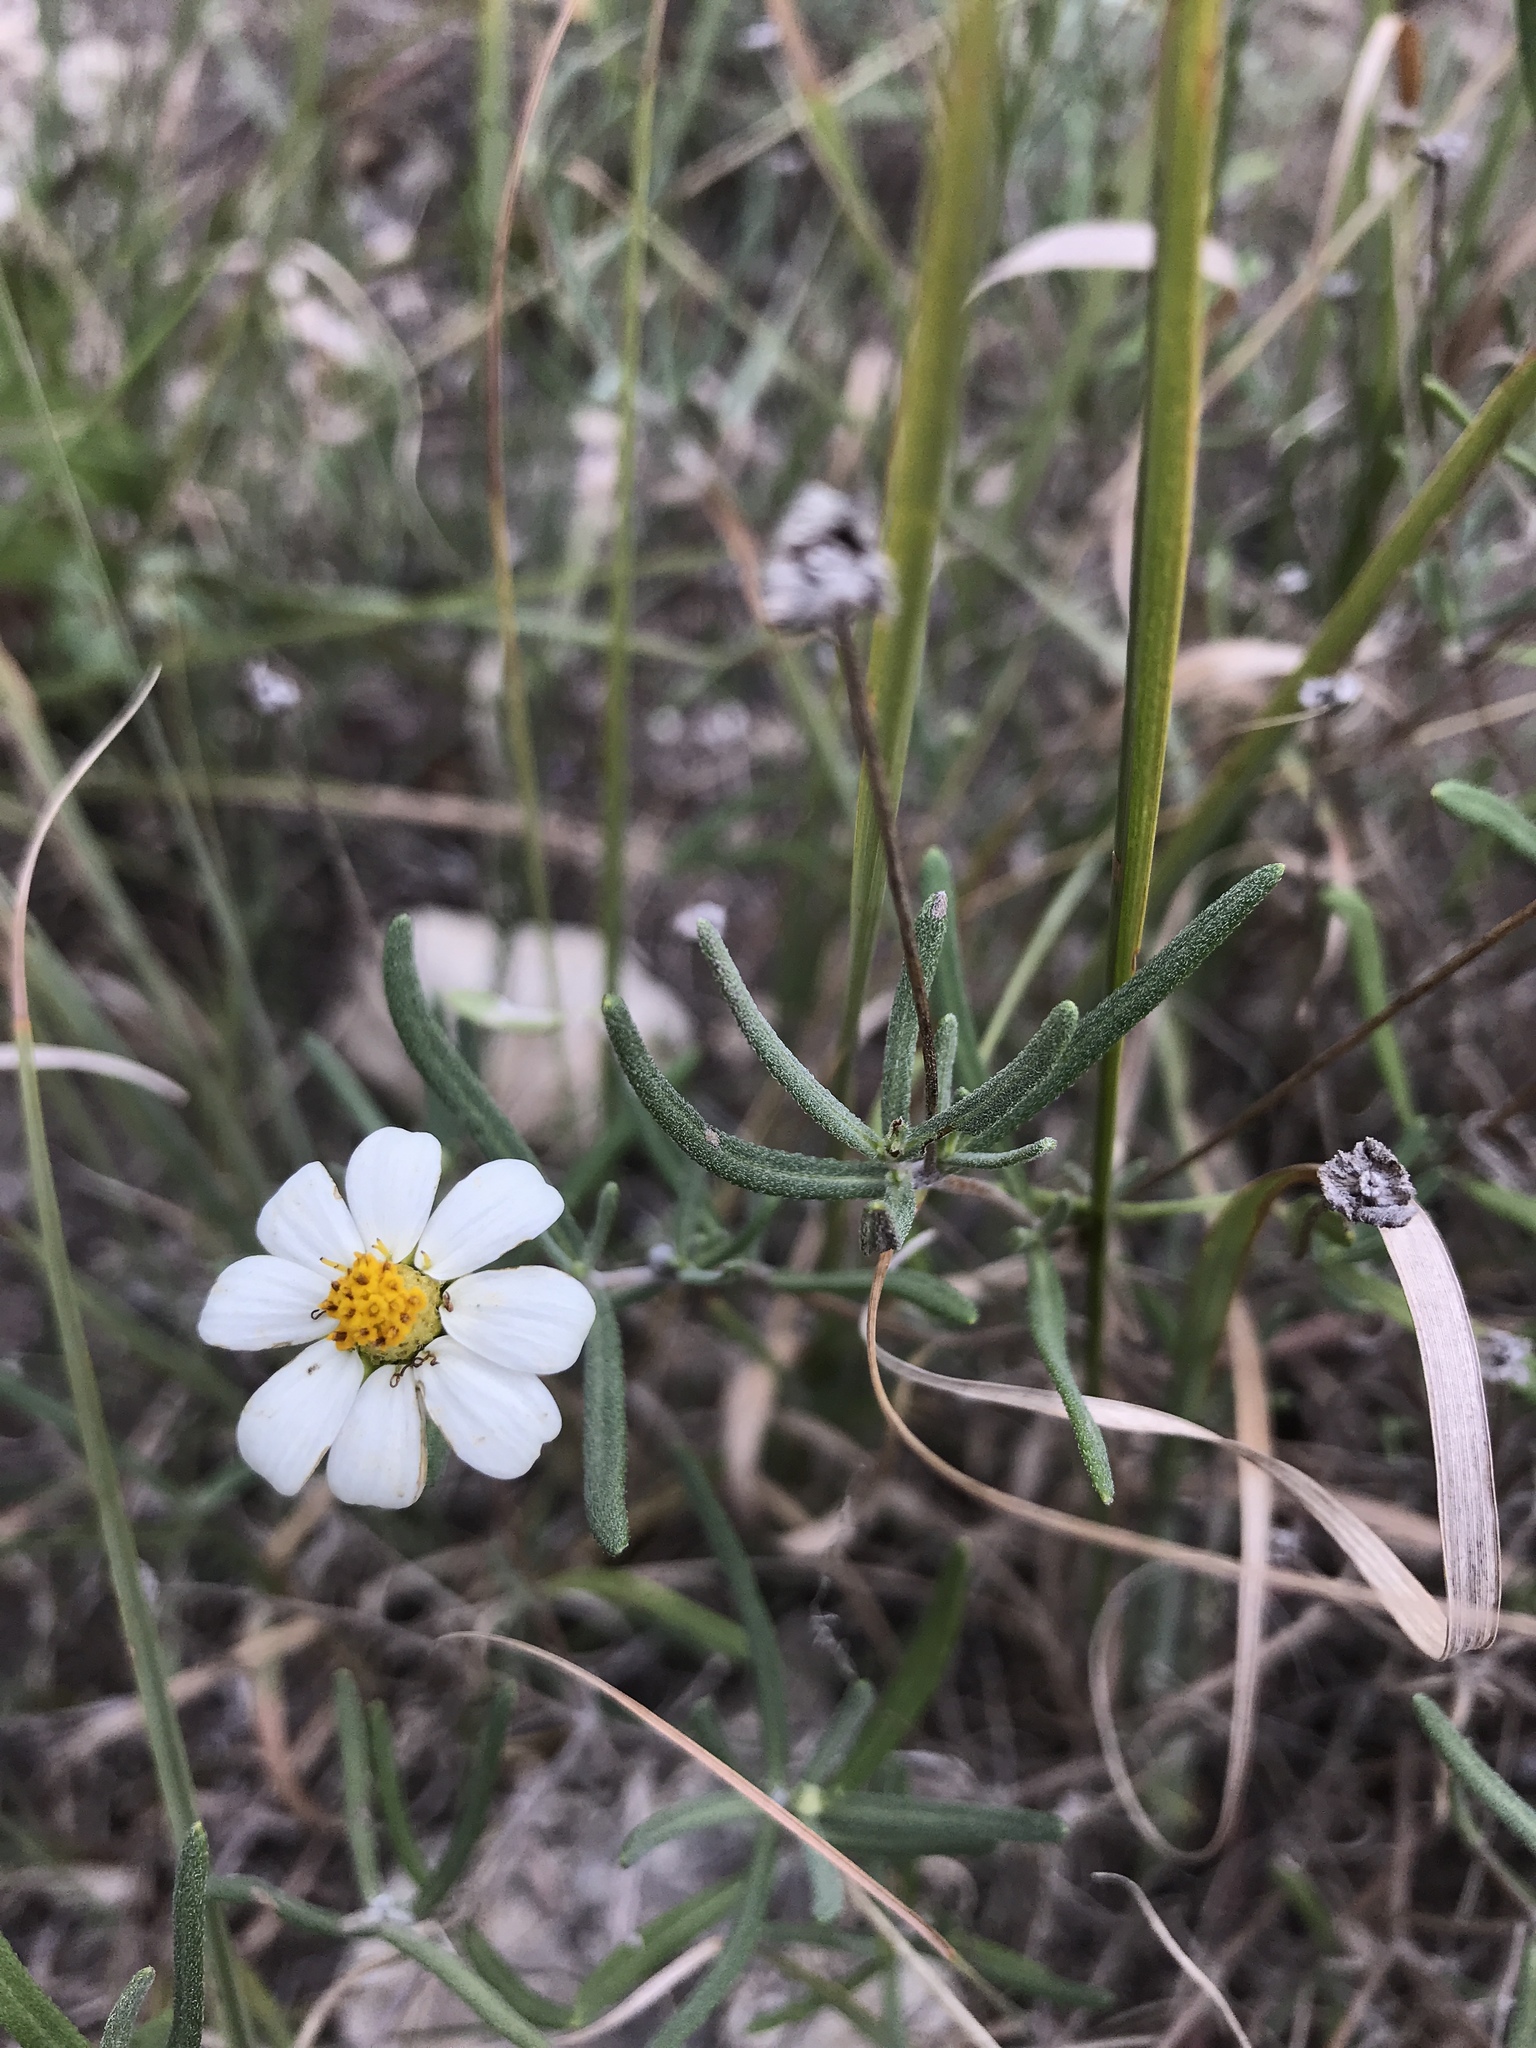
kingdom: Plantae
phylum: Tracheophyta
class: Magnoliopsida
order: Asterales
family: Asteraceae
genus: Melampodium
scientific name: Melampodium leucanthum
